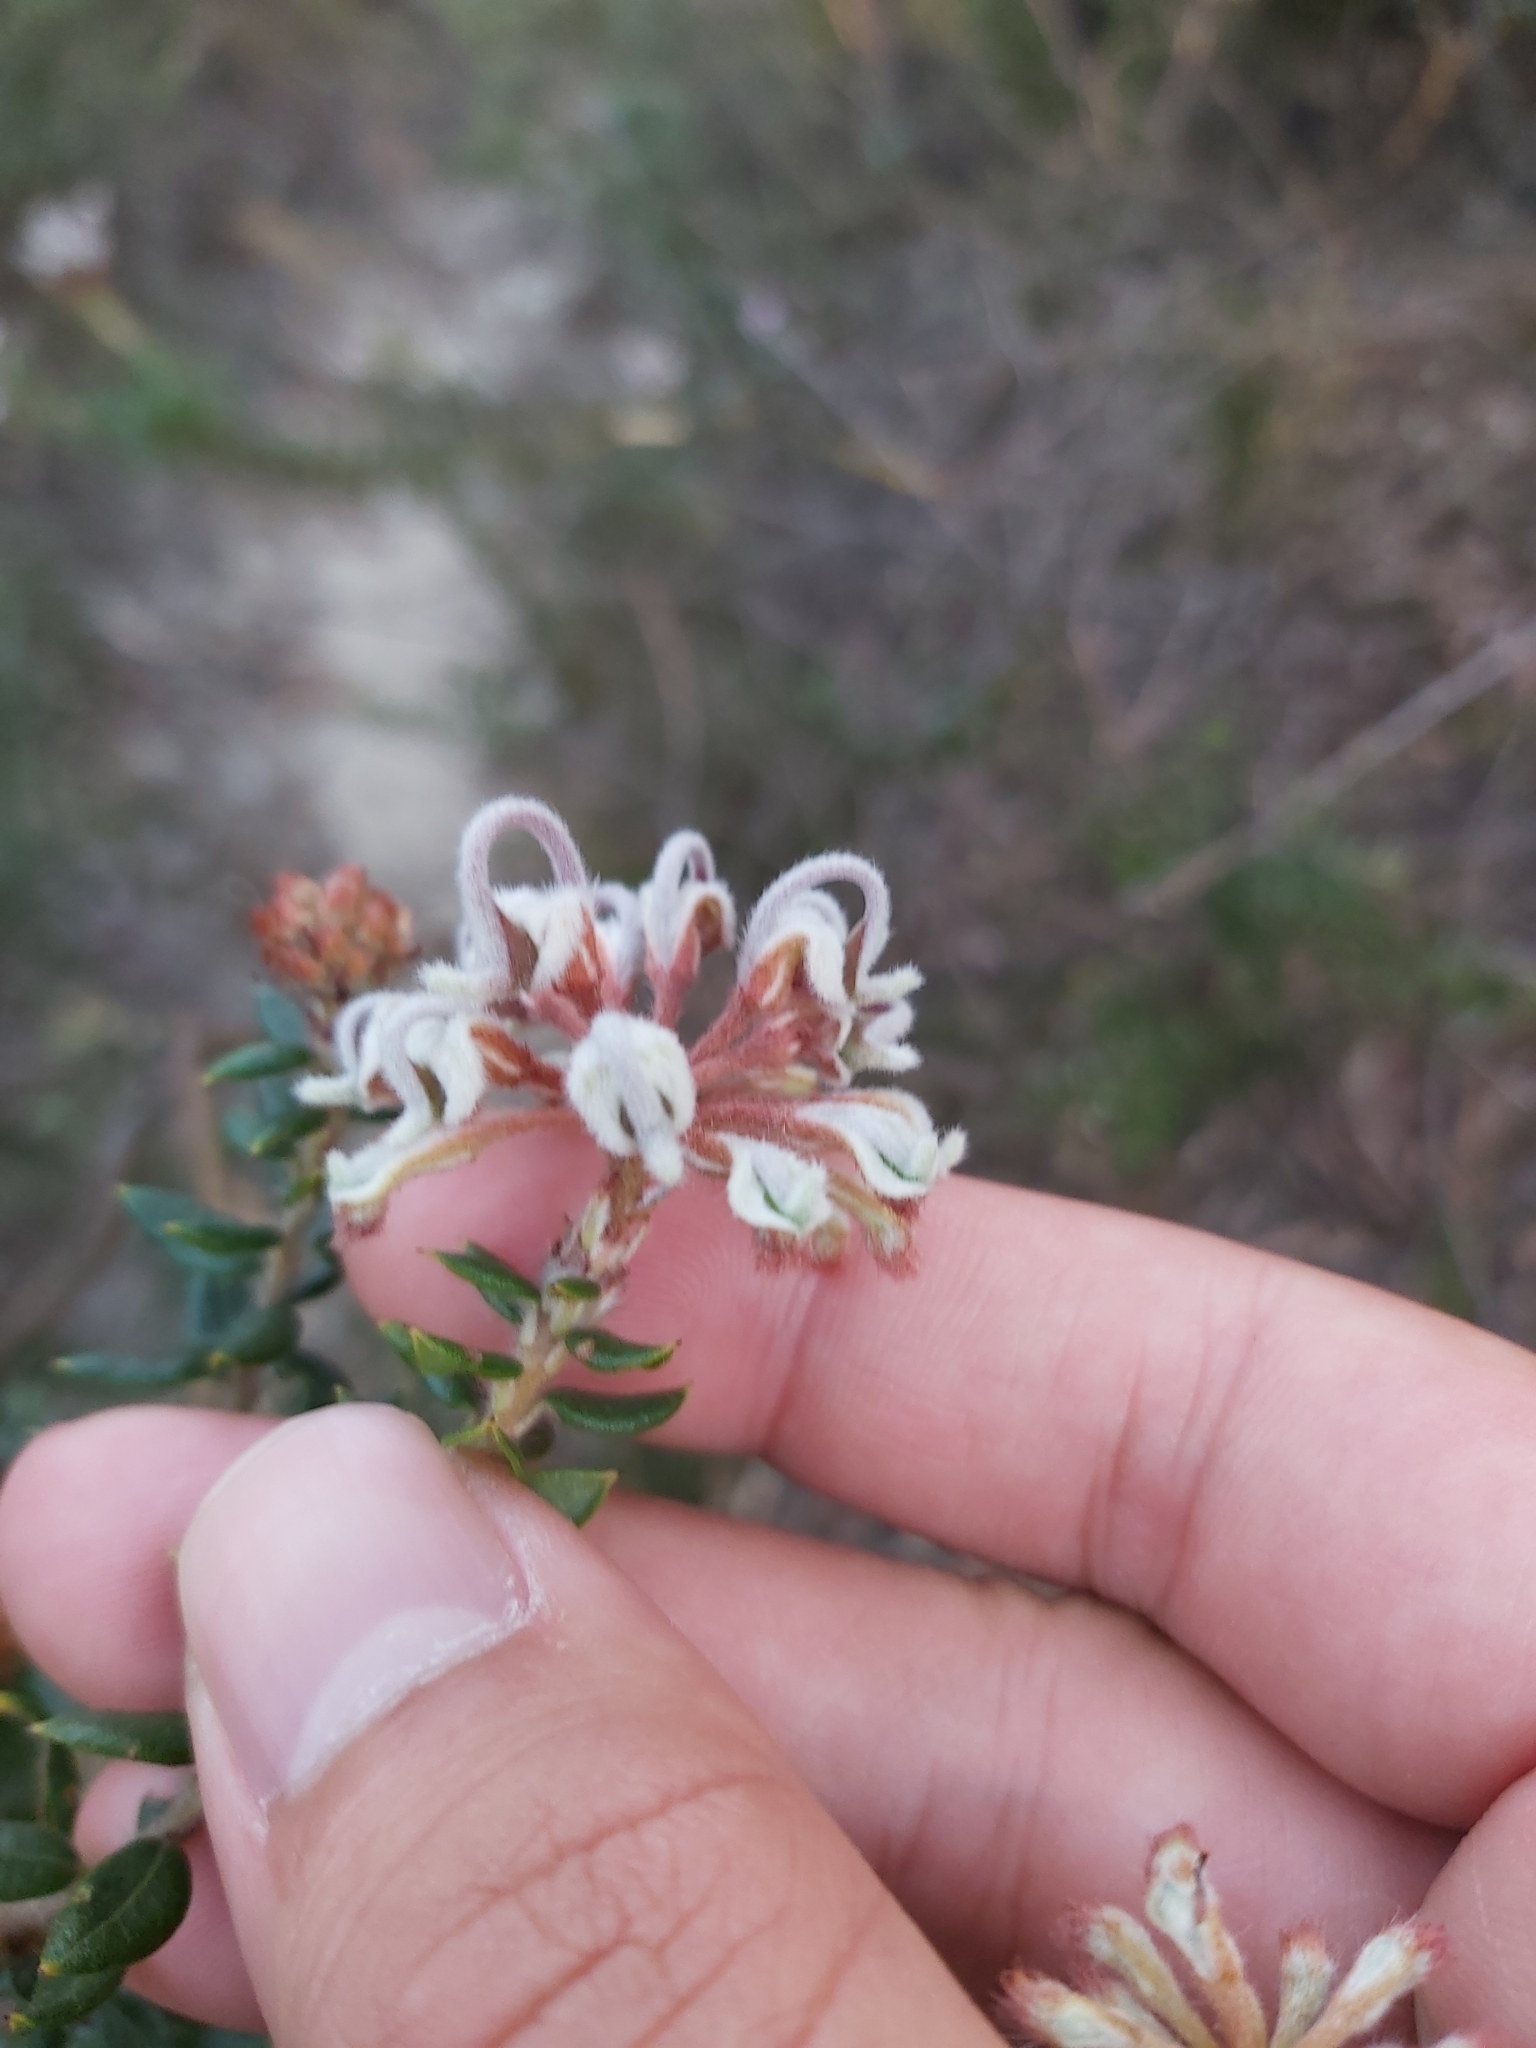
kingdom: Plantae
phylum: Tracheophyta
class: Magnoliopsida
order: Proteales
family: Proteaceae
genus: Grevillea
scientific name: Grevillea buxifolia
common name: Grey spiderflower
